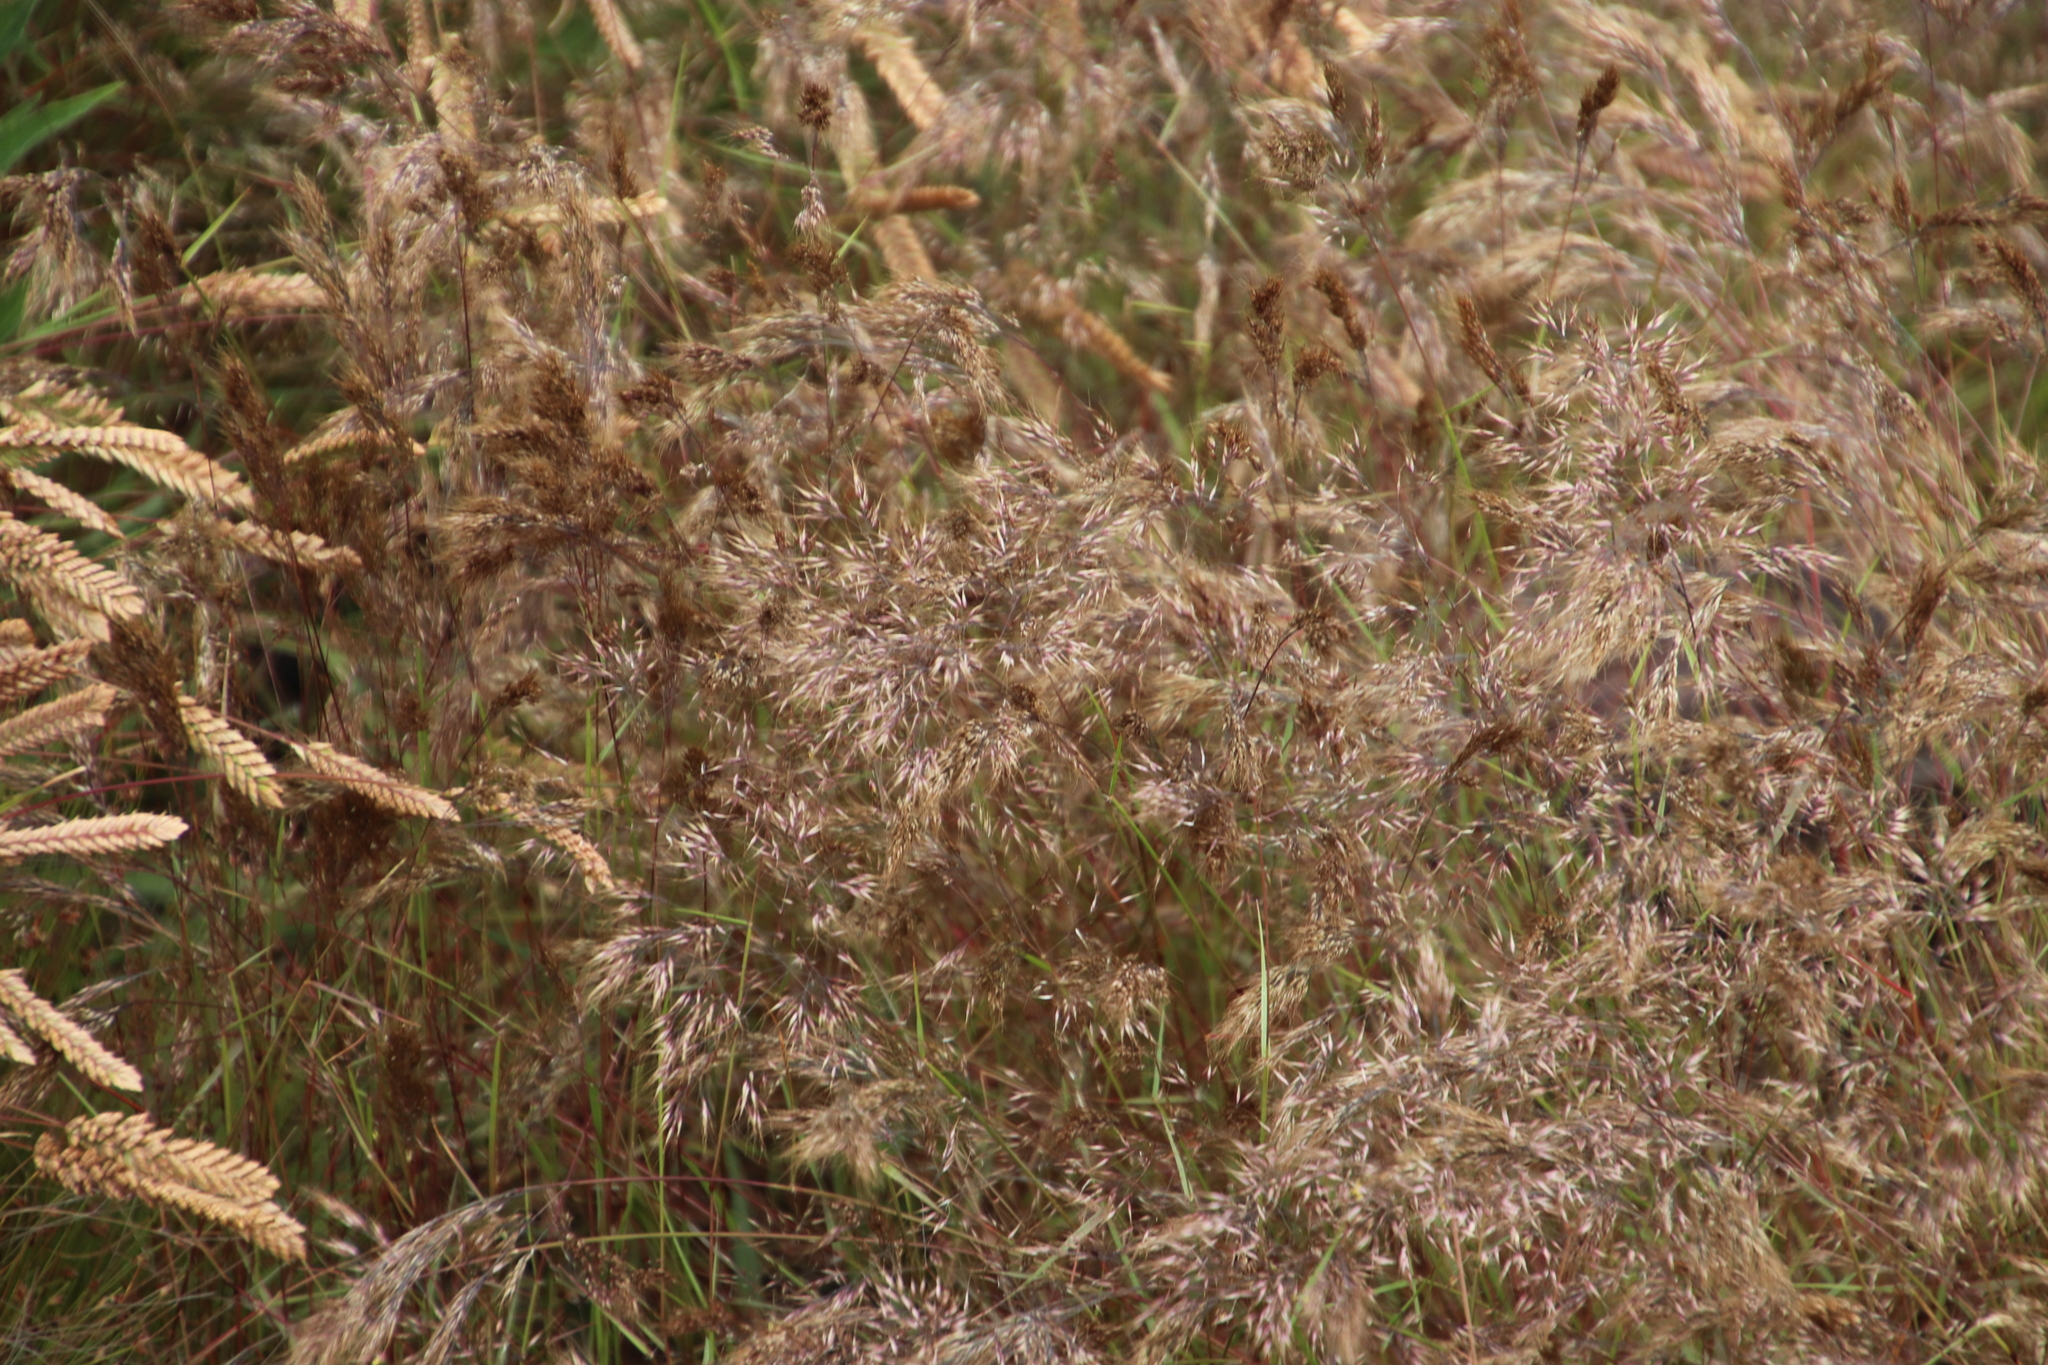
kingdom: Plantae
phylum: Tracheophyta
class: Liliopsida
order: Poales
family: Poaceae
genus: Pentameris
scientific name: Pentameris airoides
